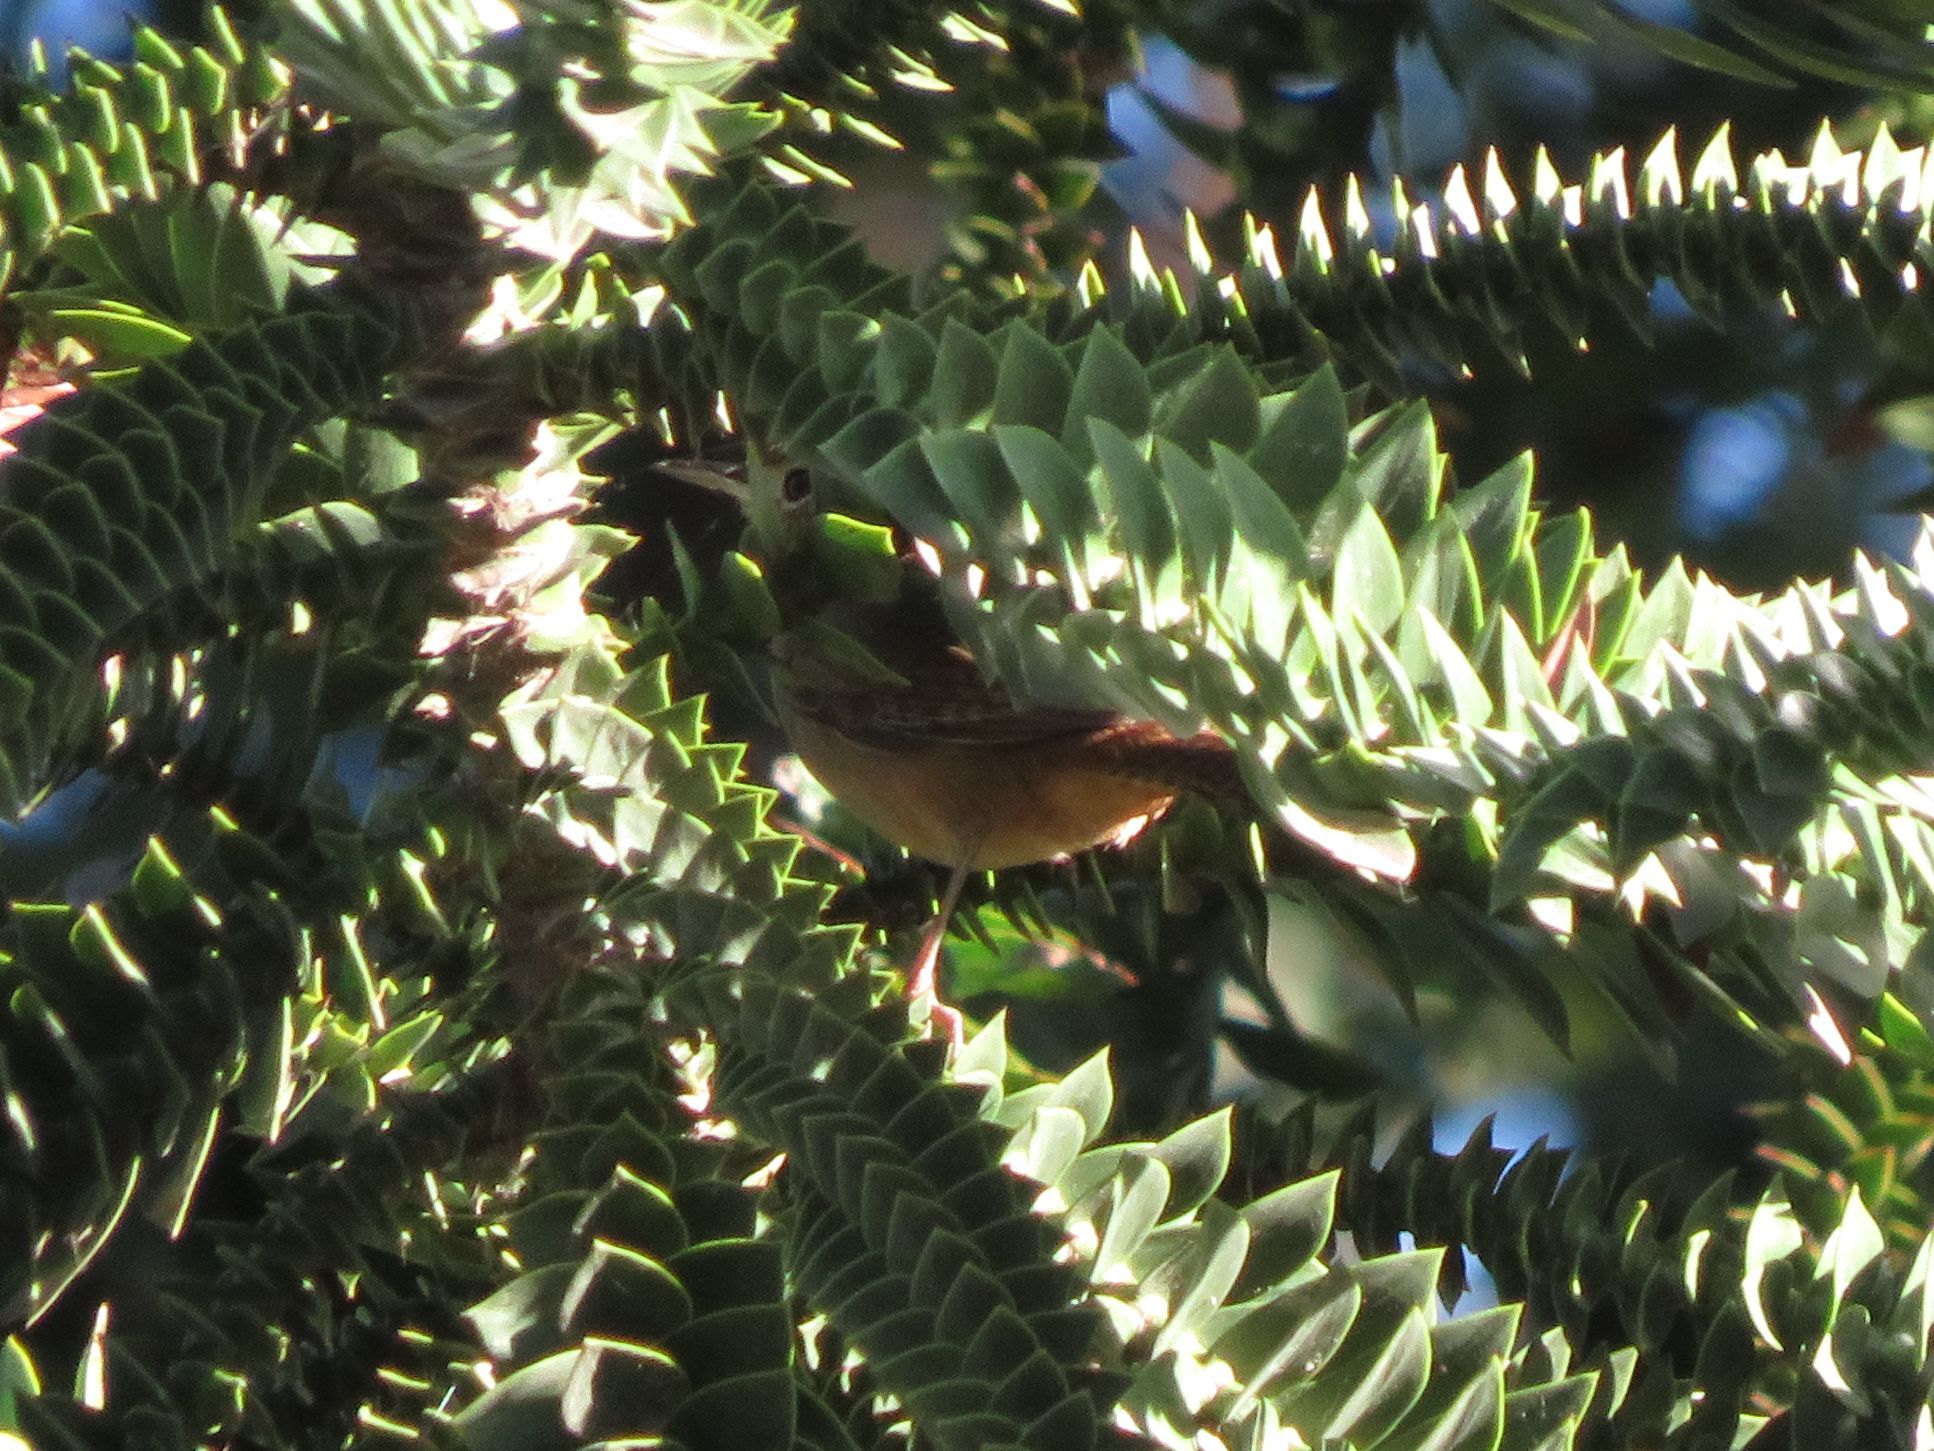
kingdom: Animalia
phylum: Chordata
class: Aves
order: Passeriformes
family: Troglodytidae
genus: Troglodytes
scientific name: Troglodytes aedon
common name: House wren
